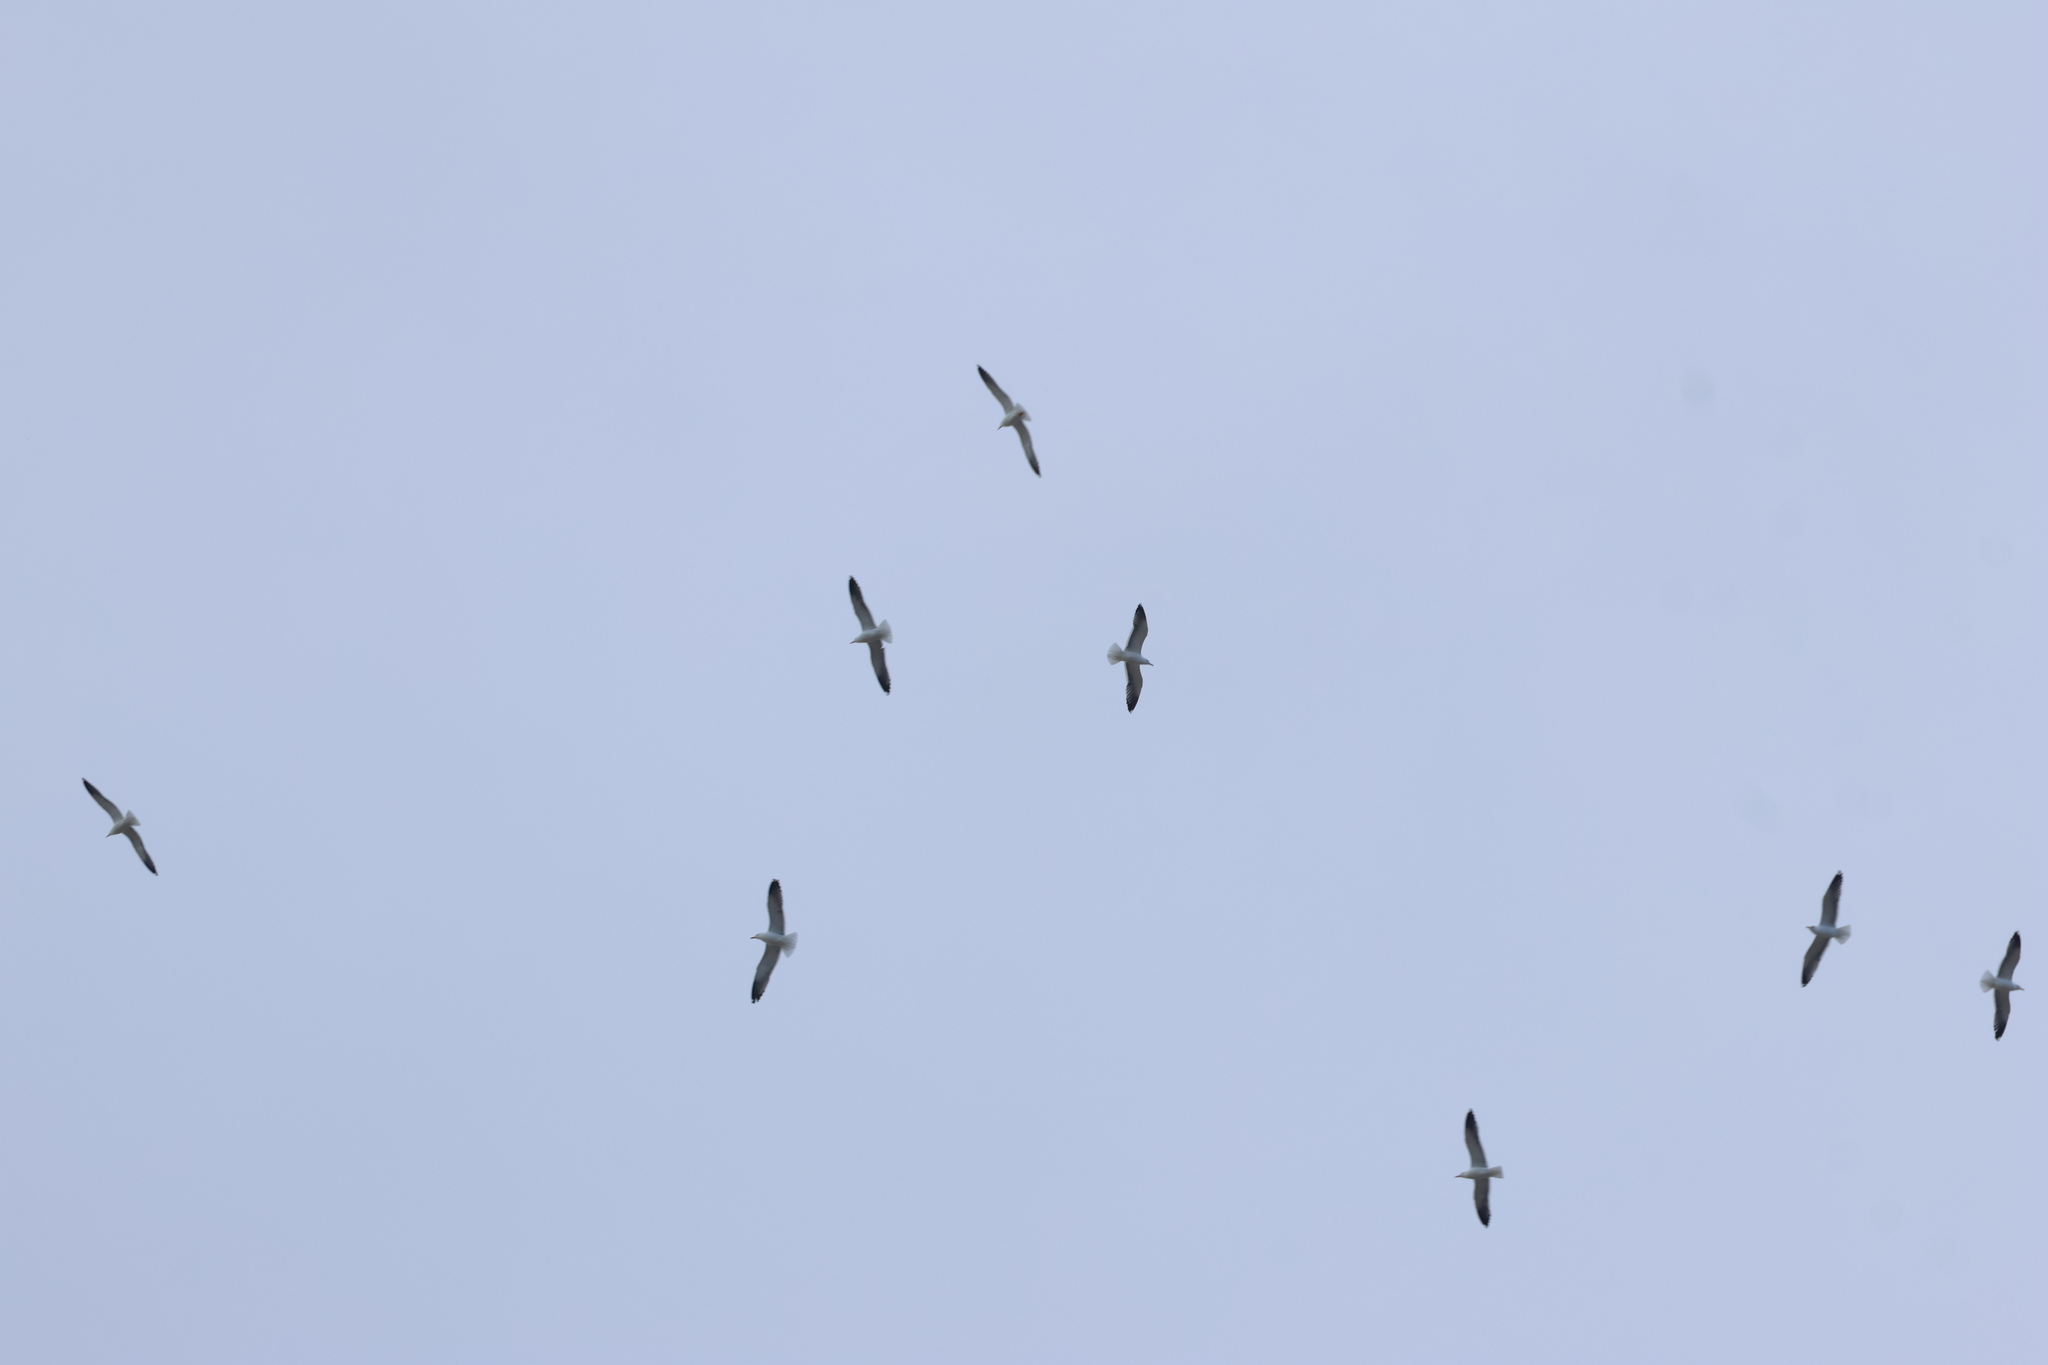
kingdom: Animalia
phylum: Chordata
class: Aves
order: Charadriiformes
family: Laridae
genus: Larus
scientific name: Larus fuscus
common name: Lesser black-backed gull
